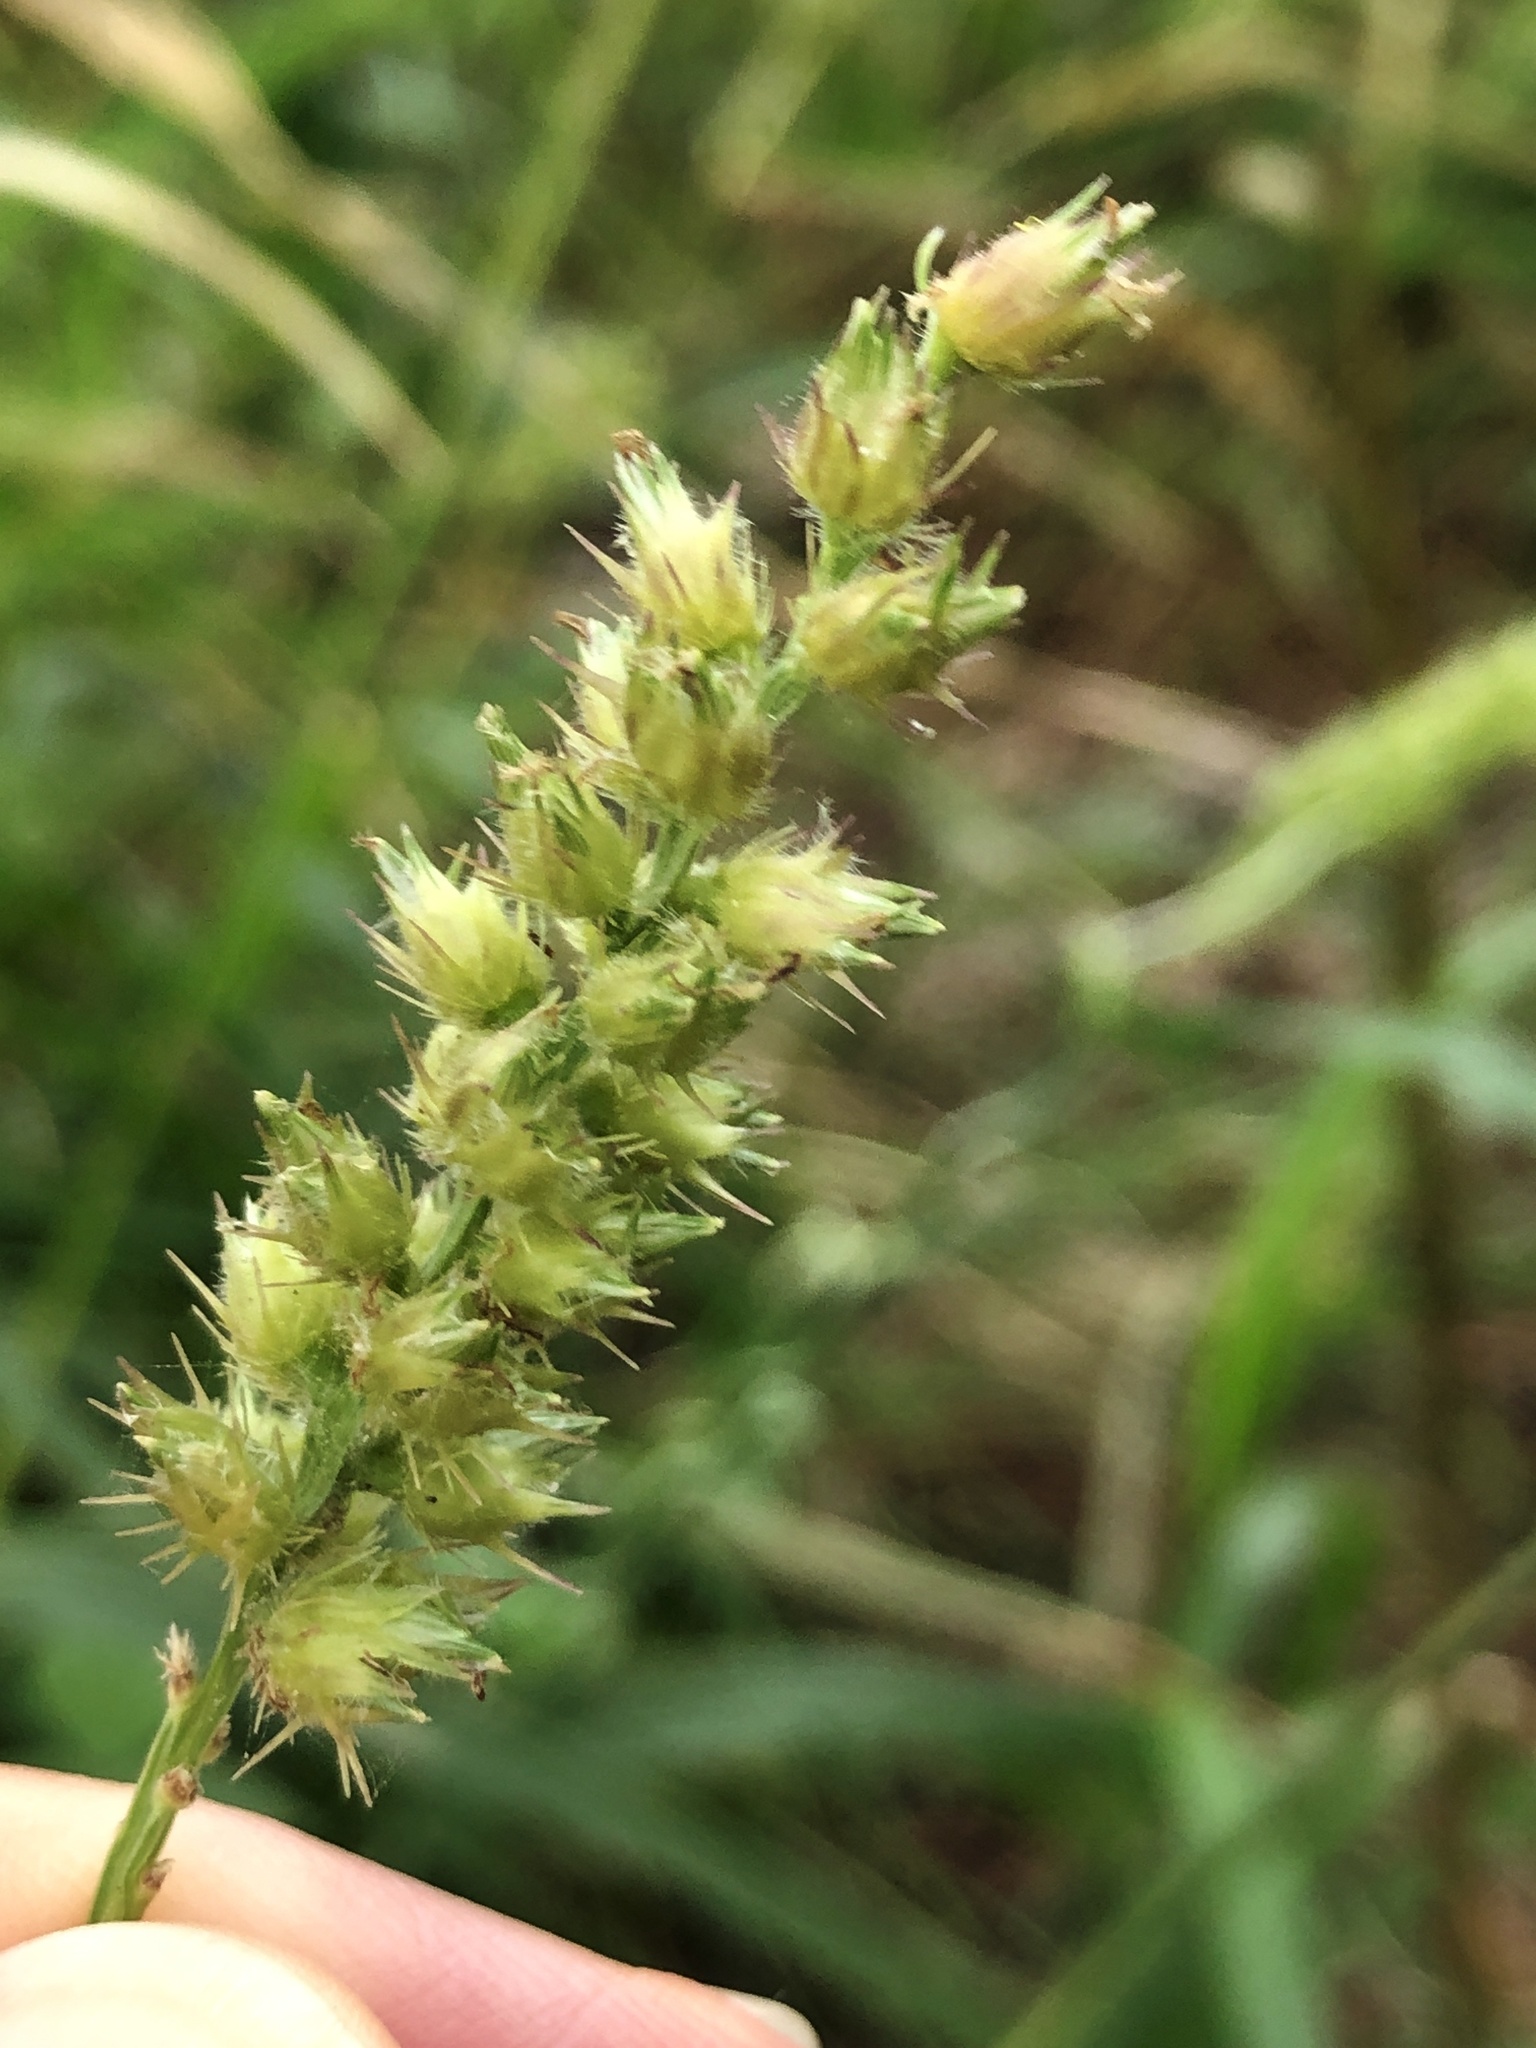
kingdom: Plantae
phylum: Tracheophyta
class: Liliopsida
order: Poales
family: Poaceae
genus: Cenchrus
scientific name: Cenchrus echinatus
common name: Southern sandbur
